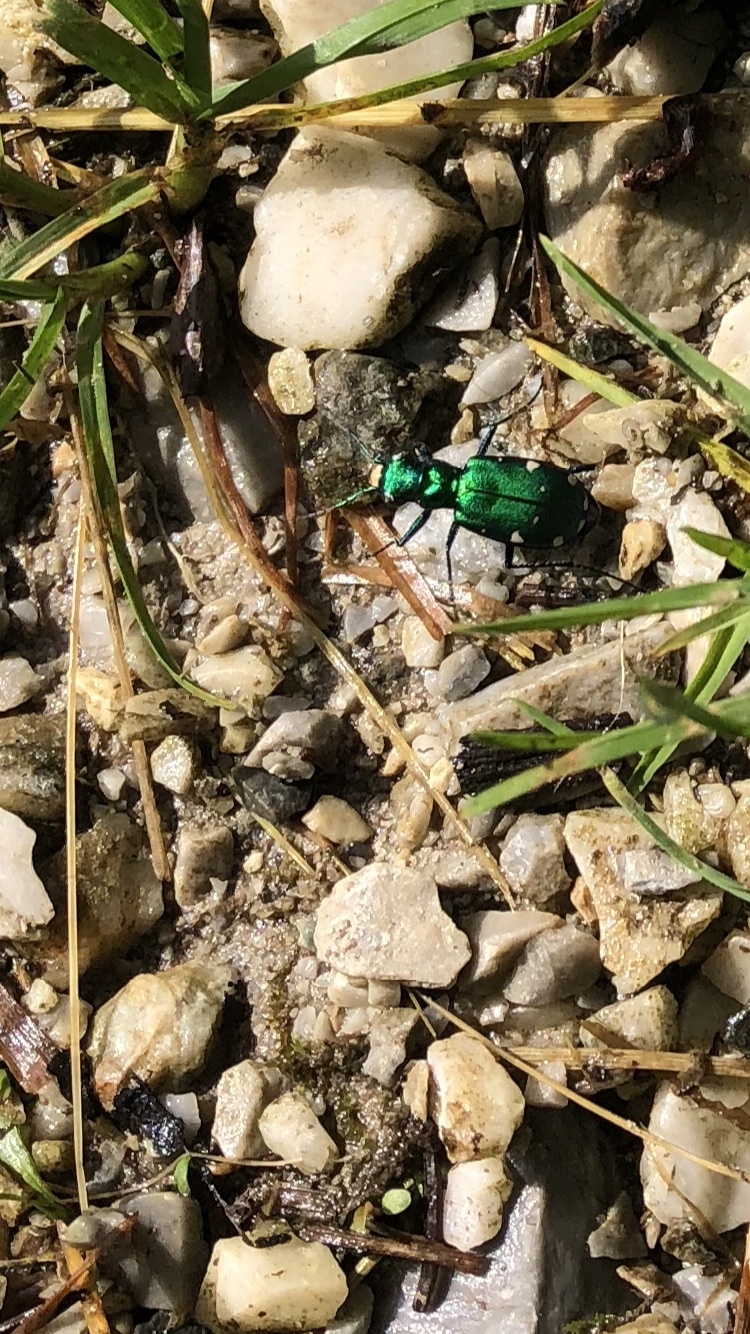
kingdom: Animalia
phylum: Arthropoda
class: Insecta
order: Coleoptera
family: Carabidae
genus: Cicindela
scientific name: Cicindela sexguttata
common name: Six-spotted tiger beetle
